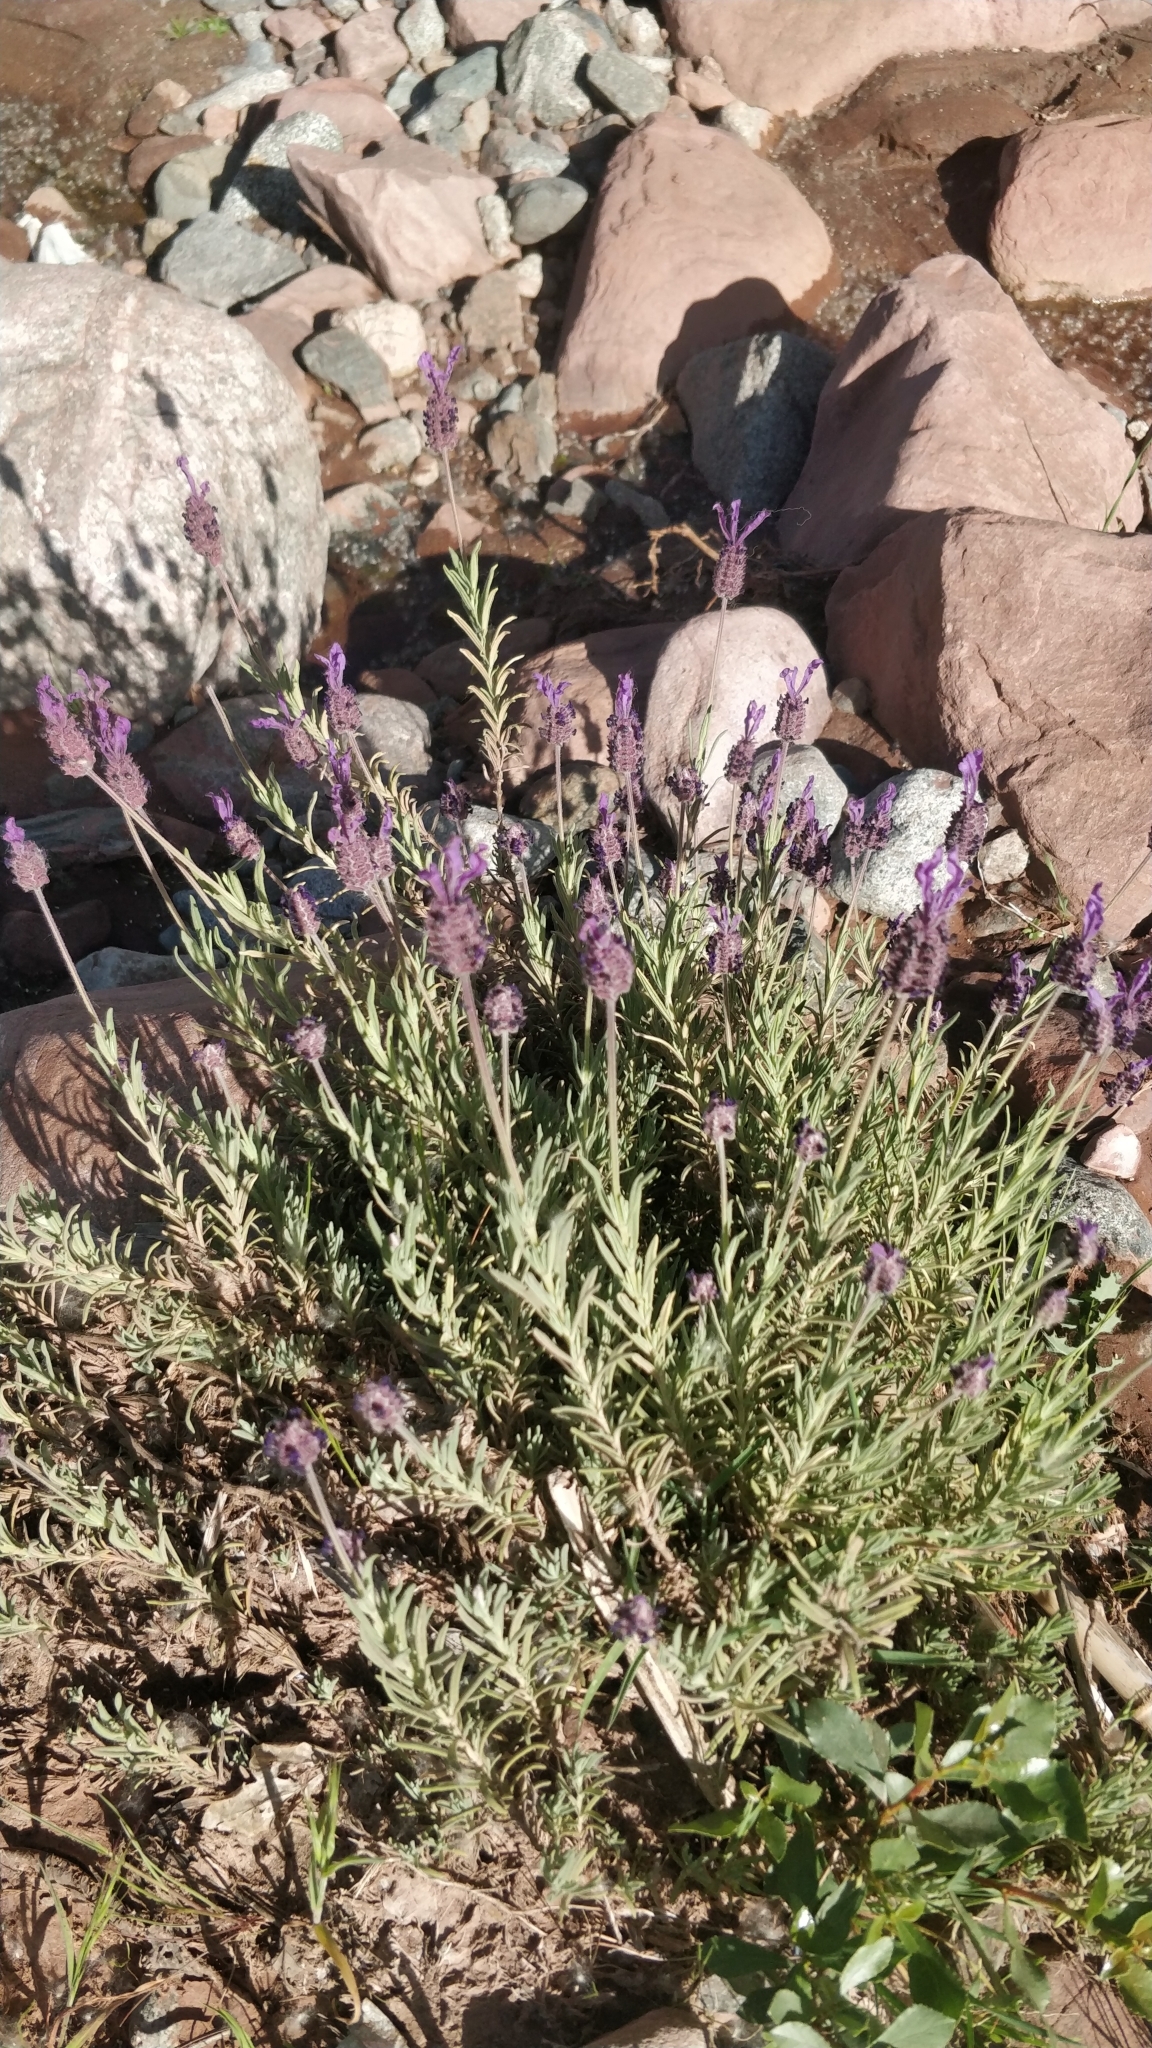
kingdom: Plantae
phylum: Tracheophyta
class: Magnoliopsida
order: Lamiales
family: Lamiaceae
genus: Lavandula
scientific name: Lavandula pedunculata
